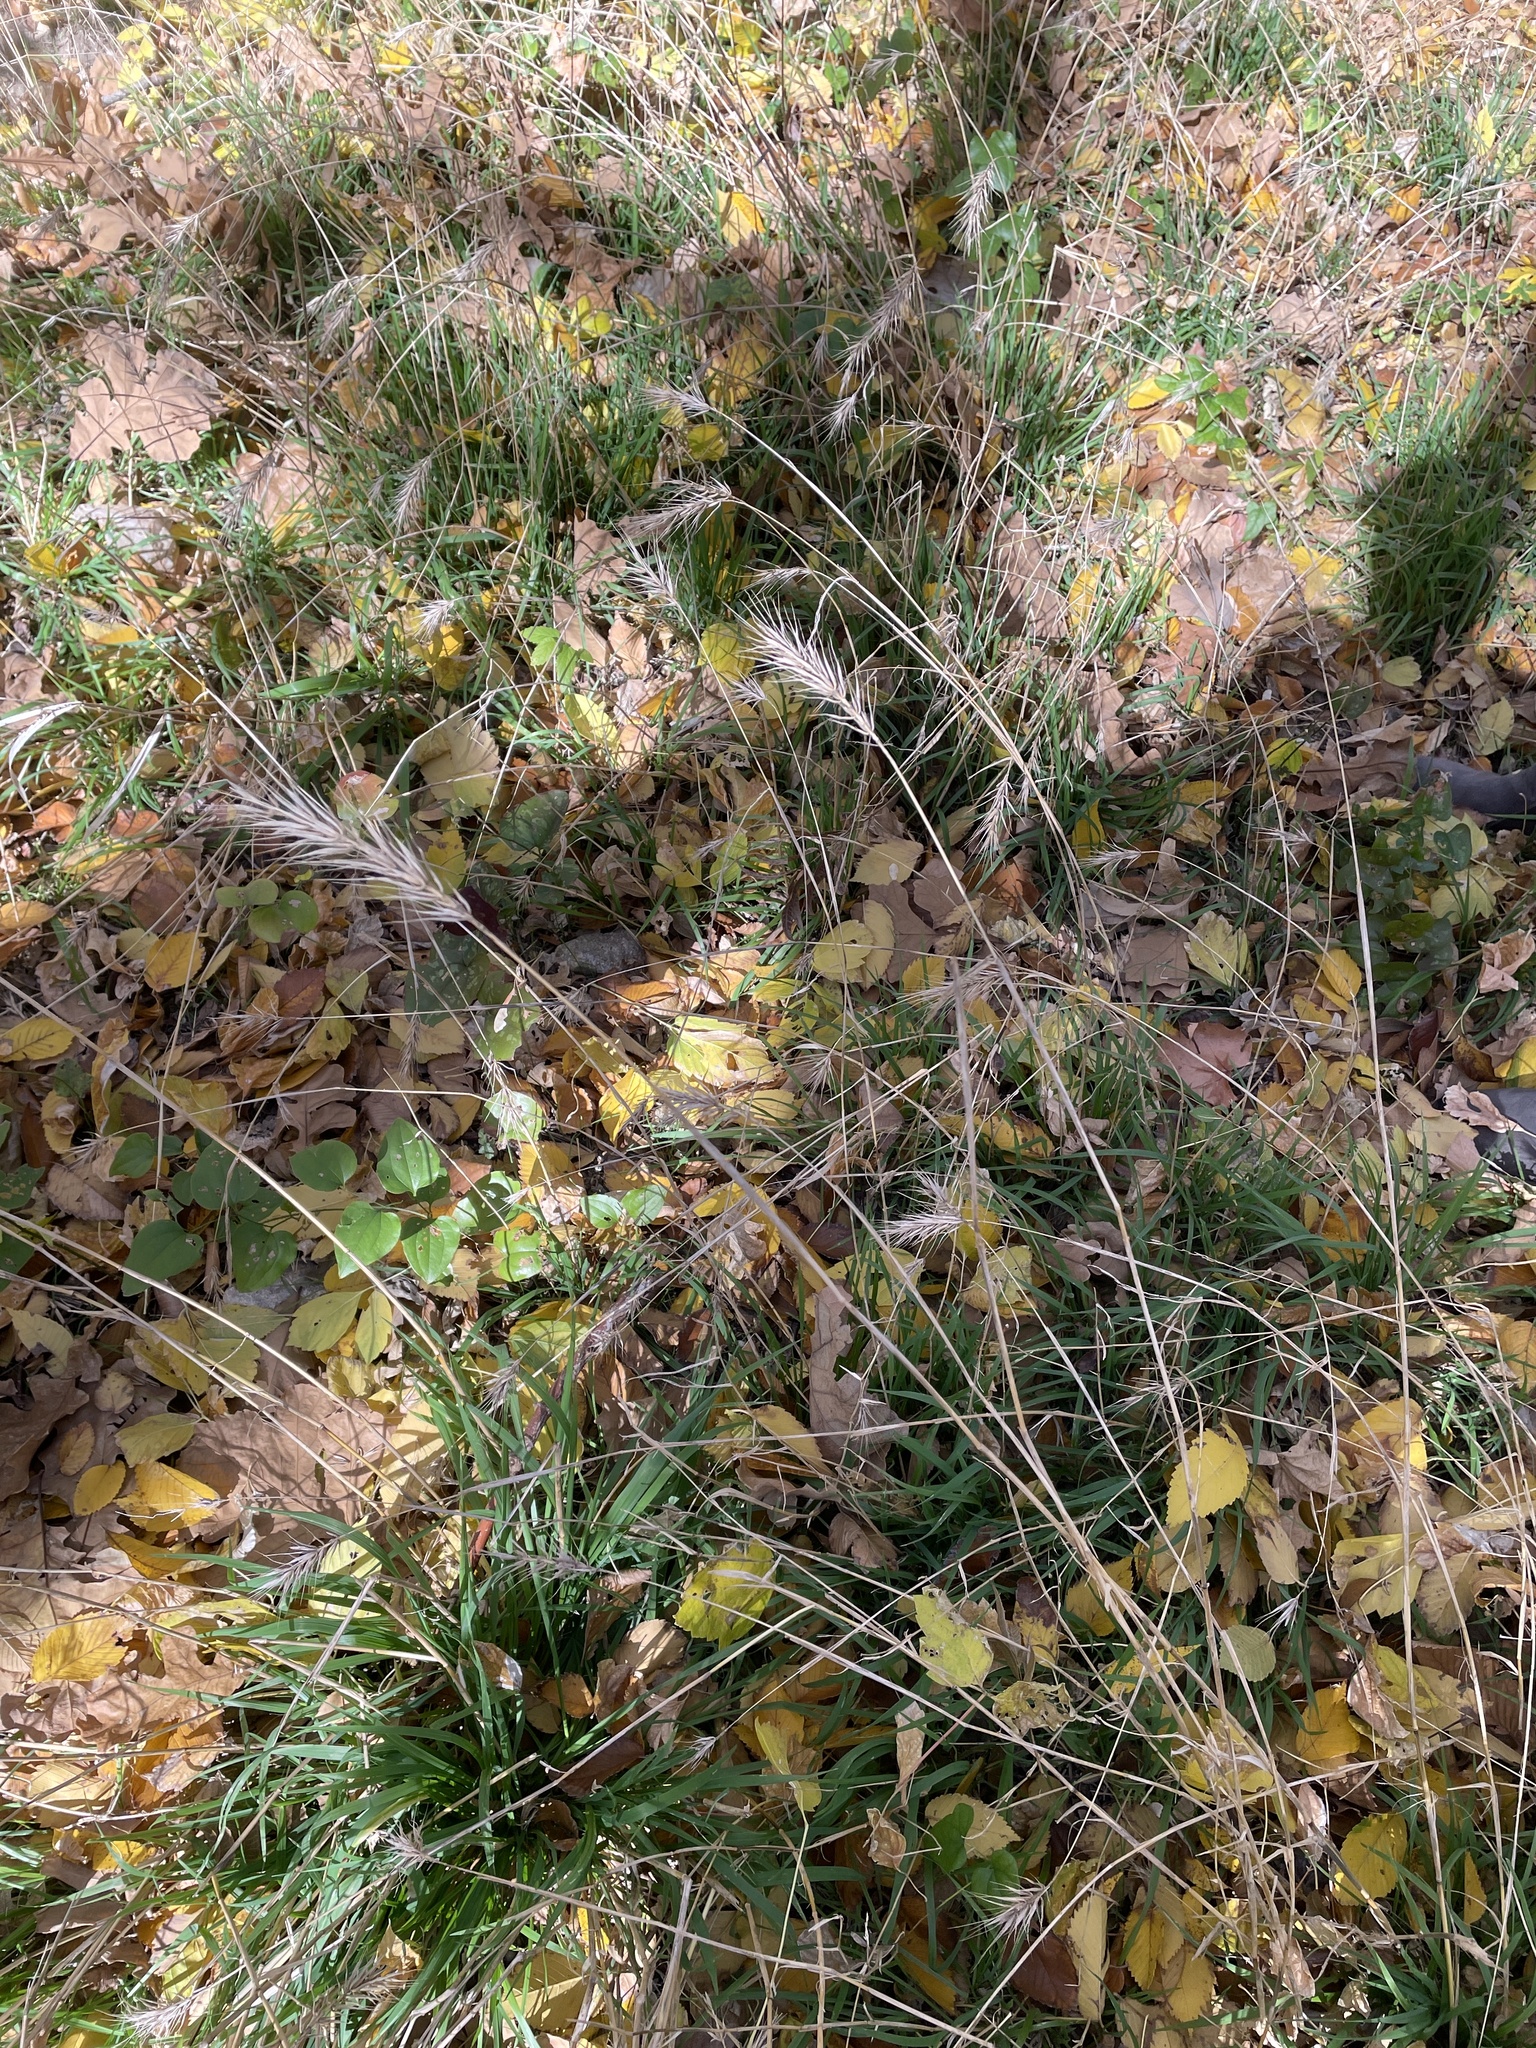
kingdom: Plantae
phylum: Tracheophyta
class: Liliopsida
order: Poales
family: Poaceae
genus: Elymus
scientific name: Elymus virginicus
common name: Common eastern wildrye
